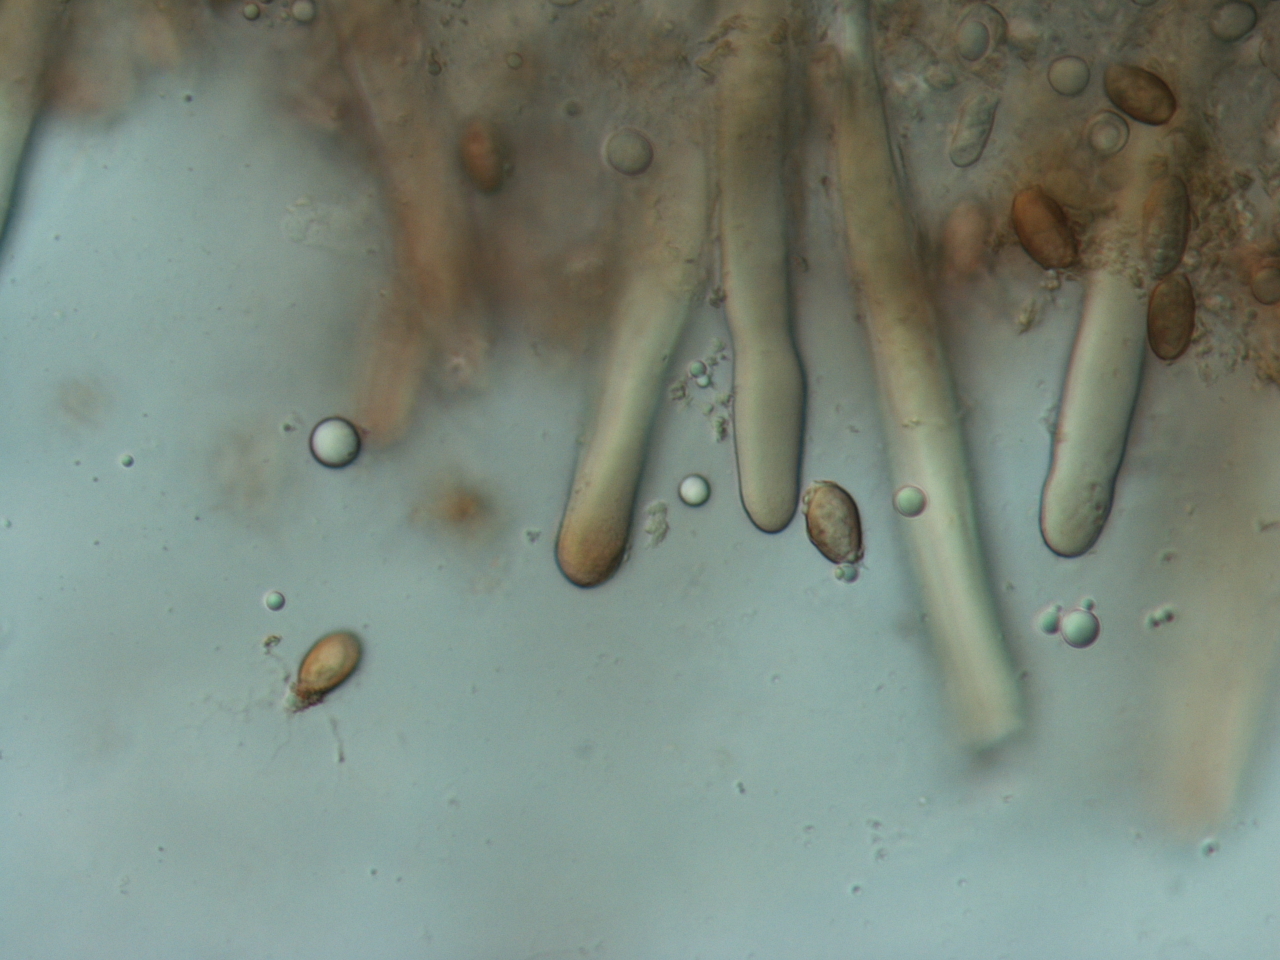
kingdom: Fungi
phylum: Basidiomycota
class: Agaricomycetes
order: Boletales
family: Gomphidiaceae
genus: Chroogomphus
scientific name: Chroogomphus tomentosus
